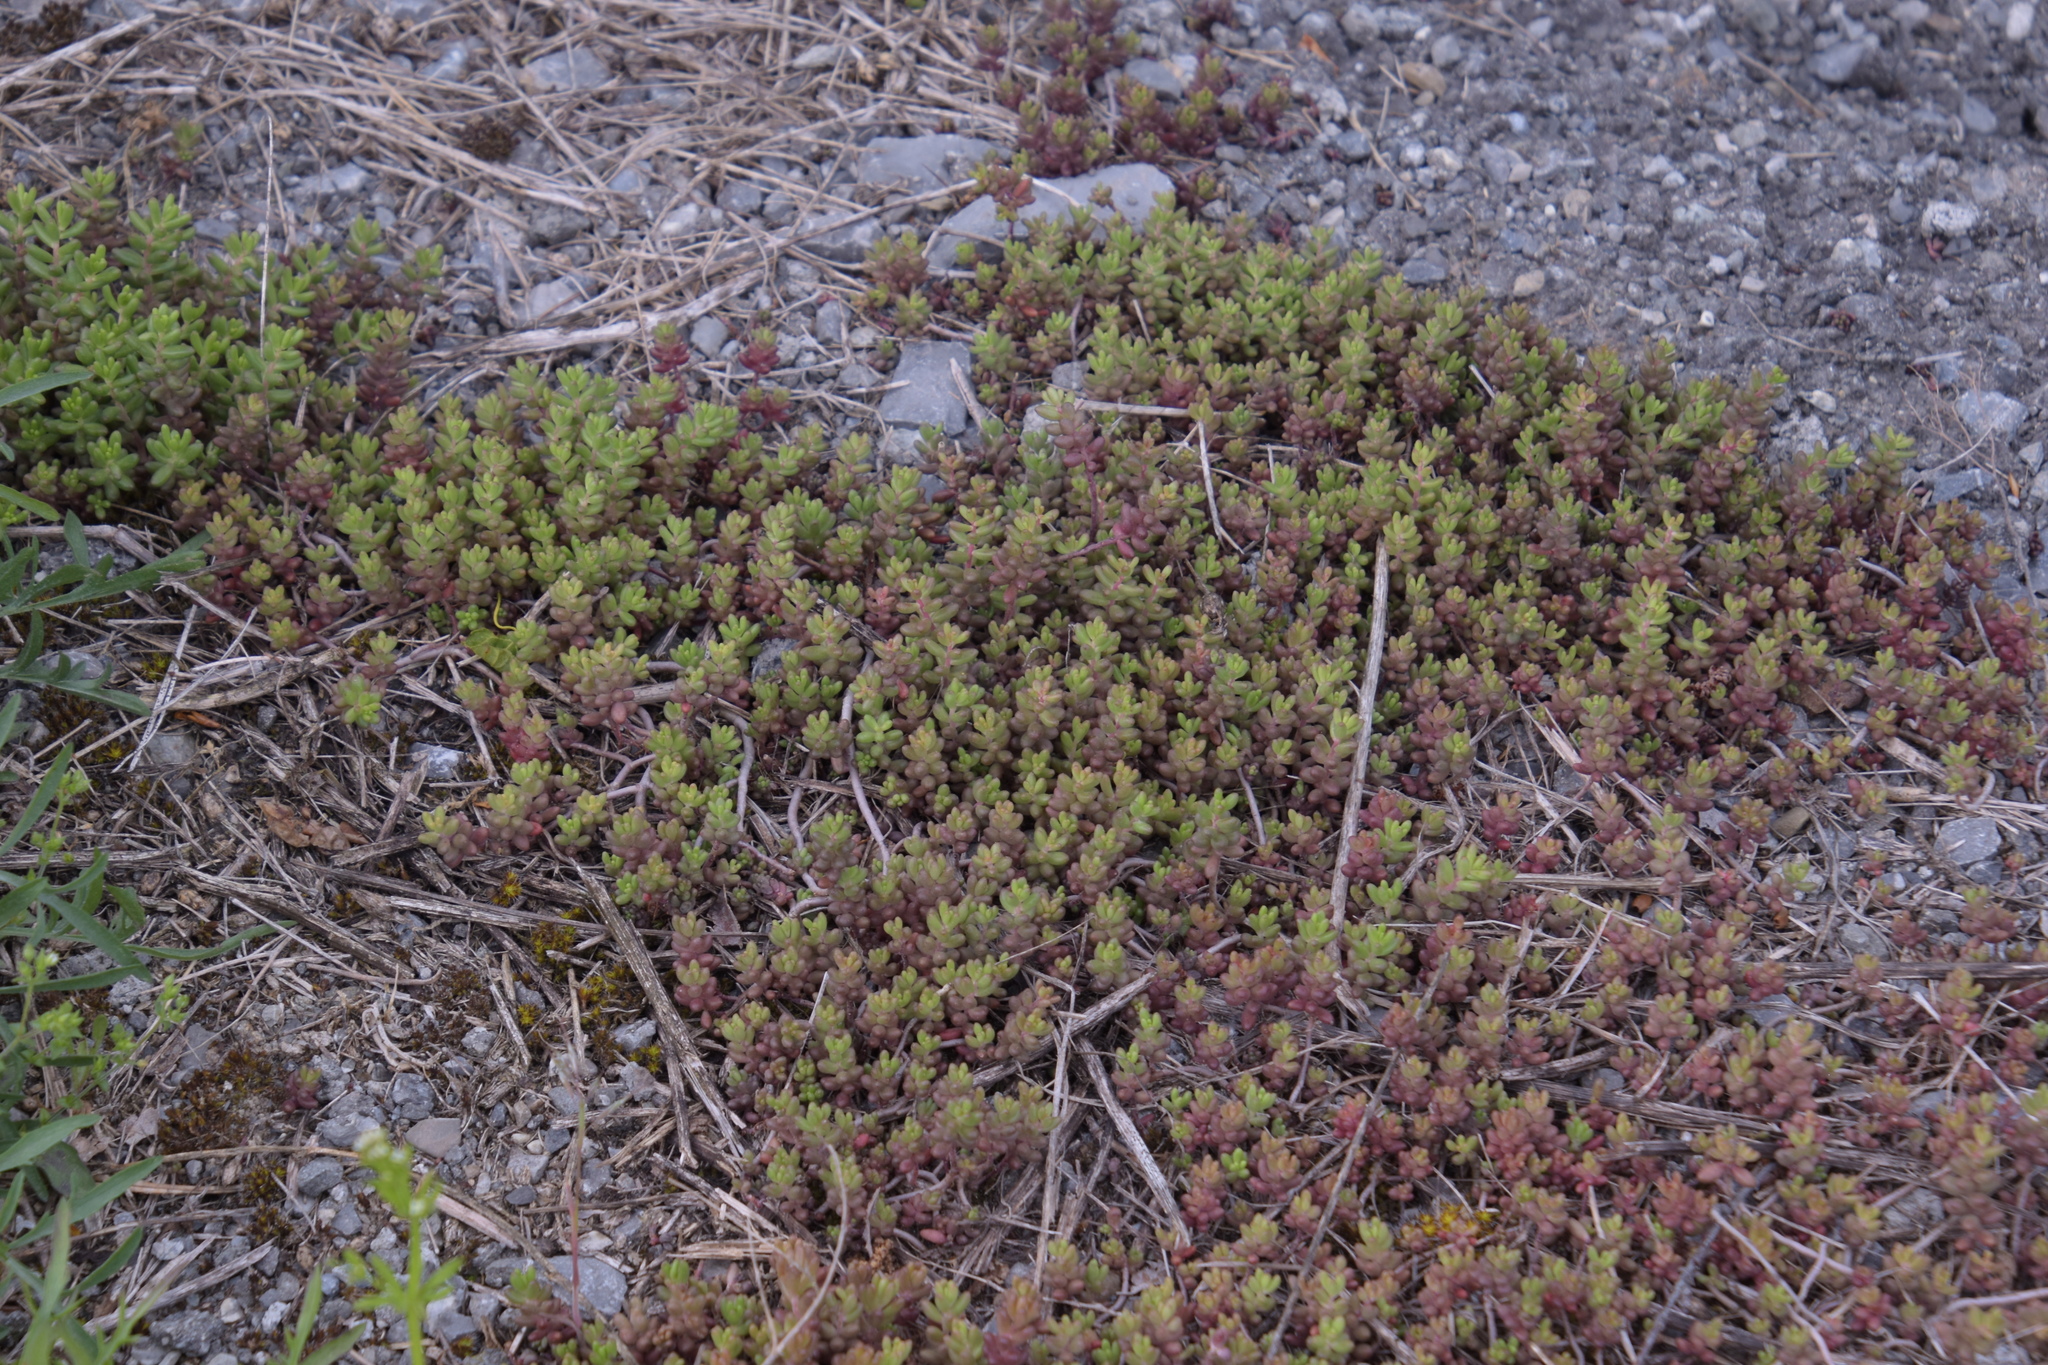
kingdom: Plantae
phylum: Tracheophyta
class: Magnoliopsida
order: Saxifragales
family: Crassulaceae
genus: Sedum
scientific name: Sedum album
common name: White stonecrop
